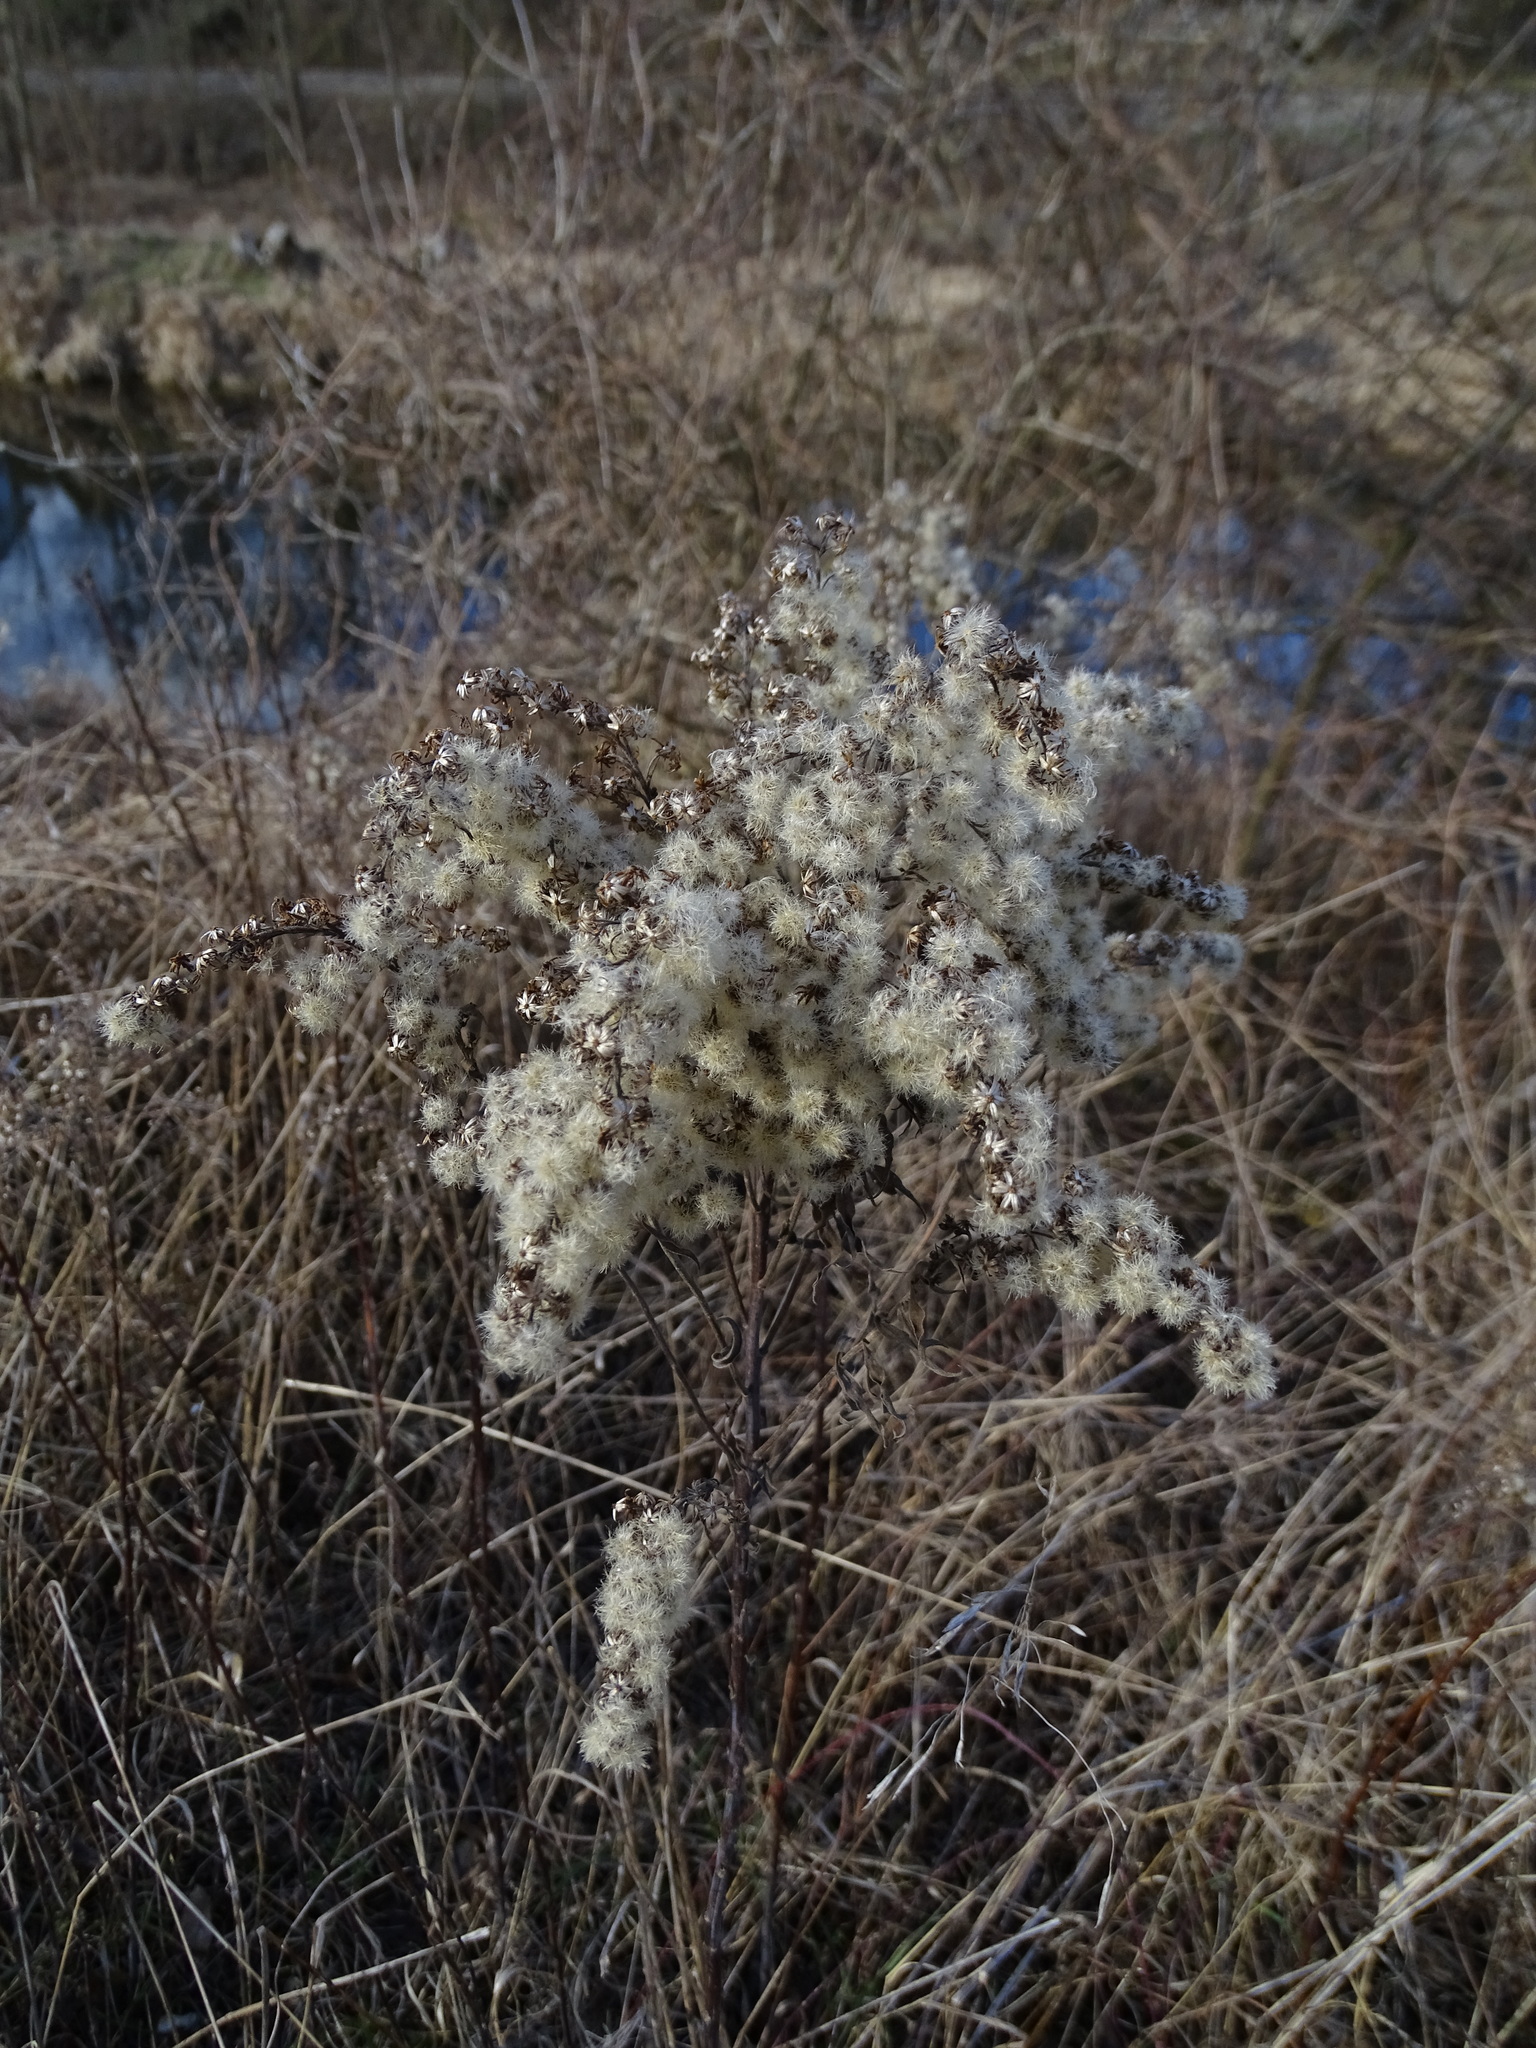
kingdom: Plantae
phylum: Tracheophyta
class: Magnoliopsida
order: Asterales
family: Asteraceae
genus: Solidago
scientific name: Solidago gigantea
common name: Giant goldenrod
